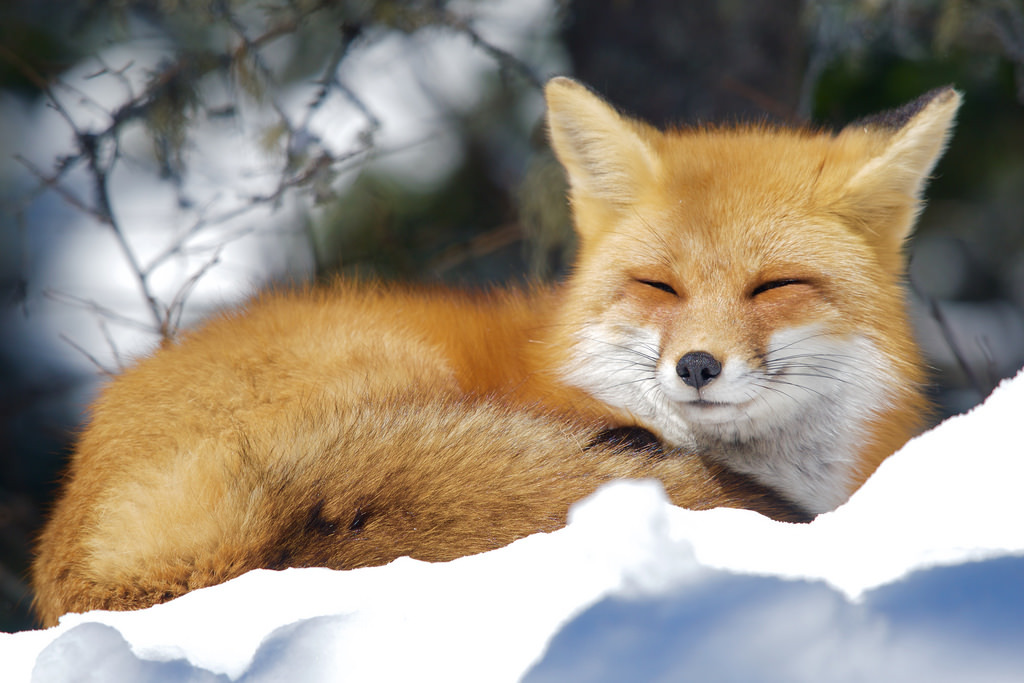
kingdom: Animalia
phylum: Chordata
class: Mammalia
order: Carnivora
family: Canidae
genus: Vulpes
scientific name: Vulpes vulpes
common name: Red fox
